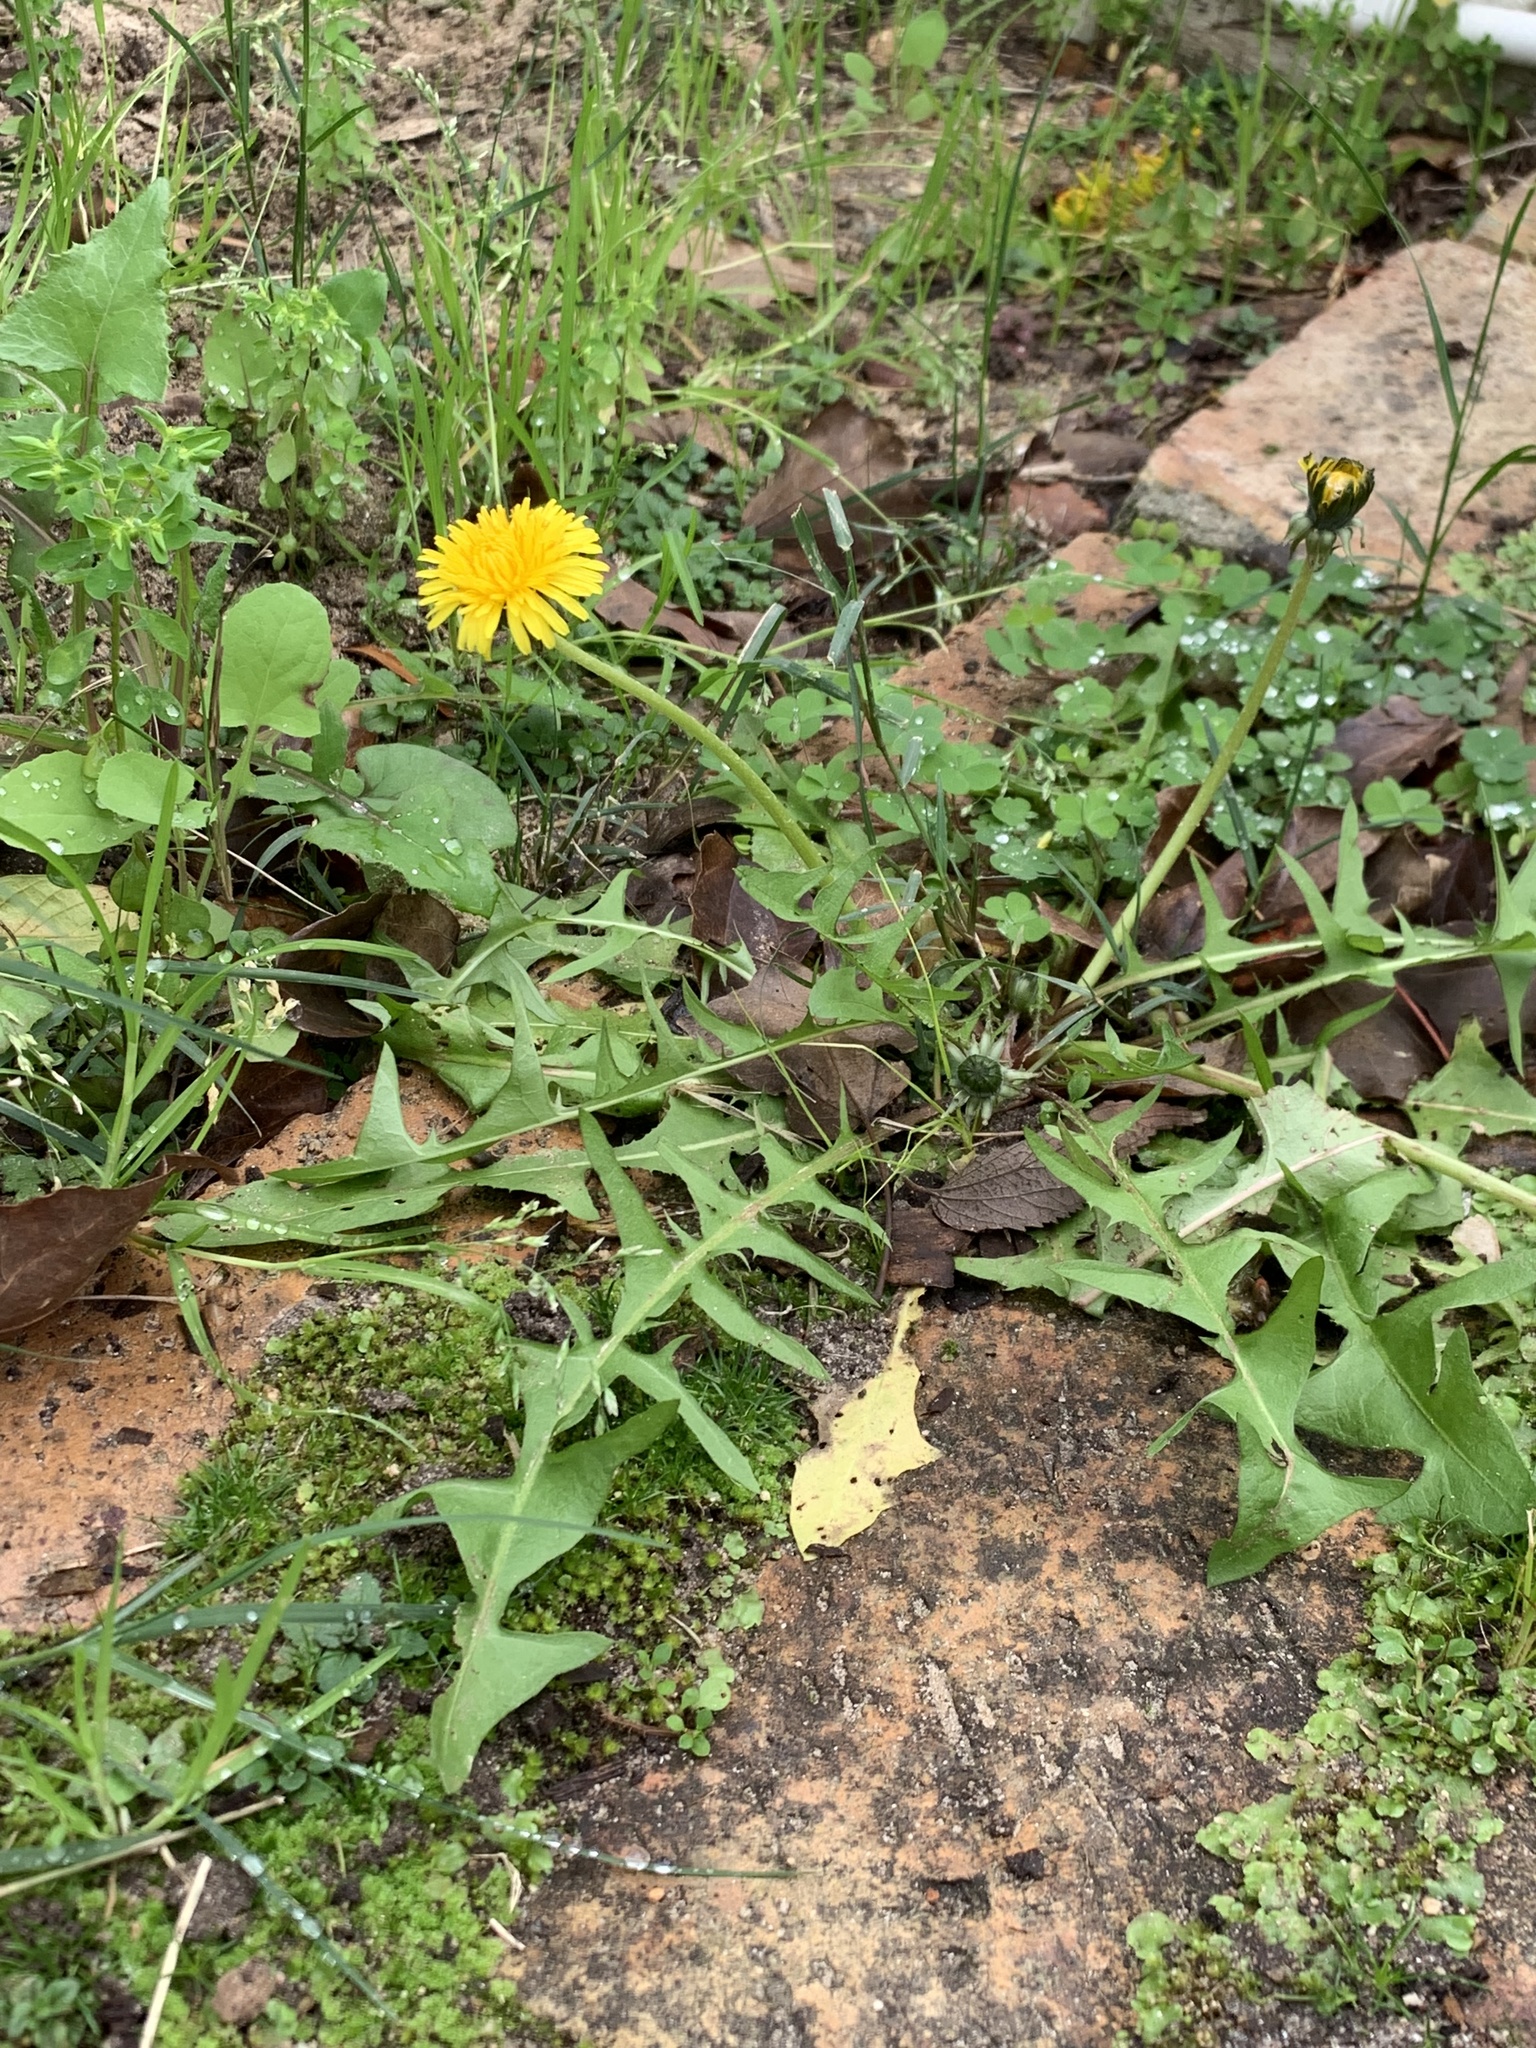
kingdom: Plantae
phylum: Tracheophyta
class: Magnoliopsida
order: Asterales
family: Asteraceae
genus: Taraxacum
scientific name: Taraxacum officinale
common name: Common dandelion
